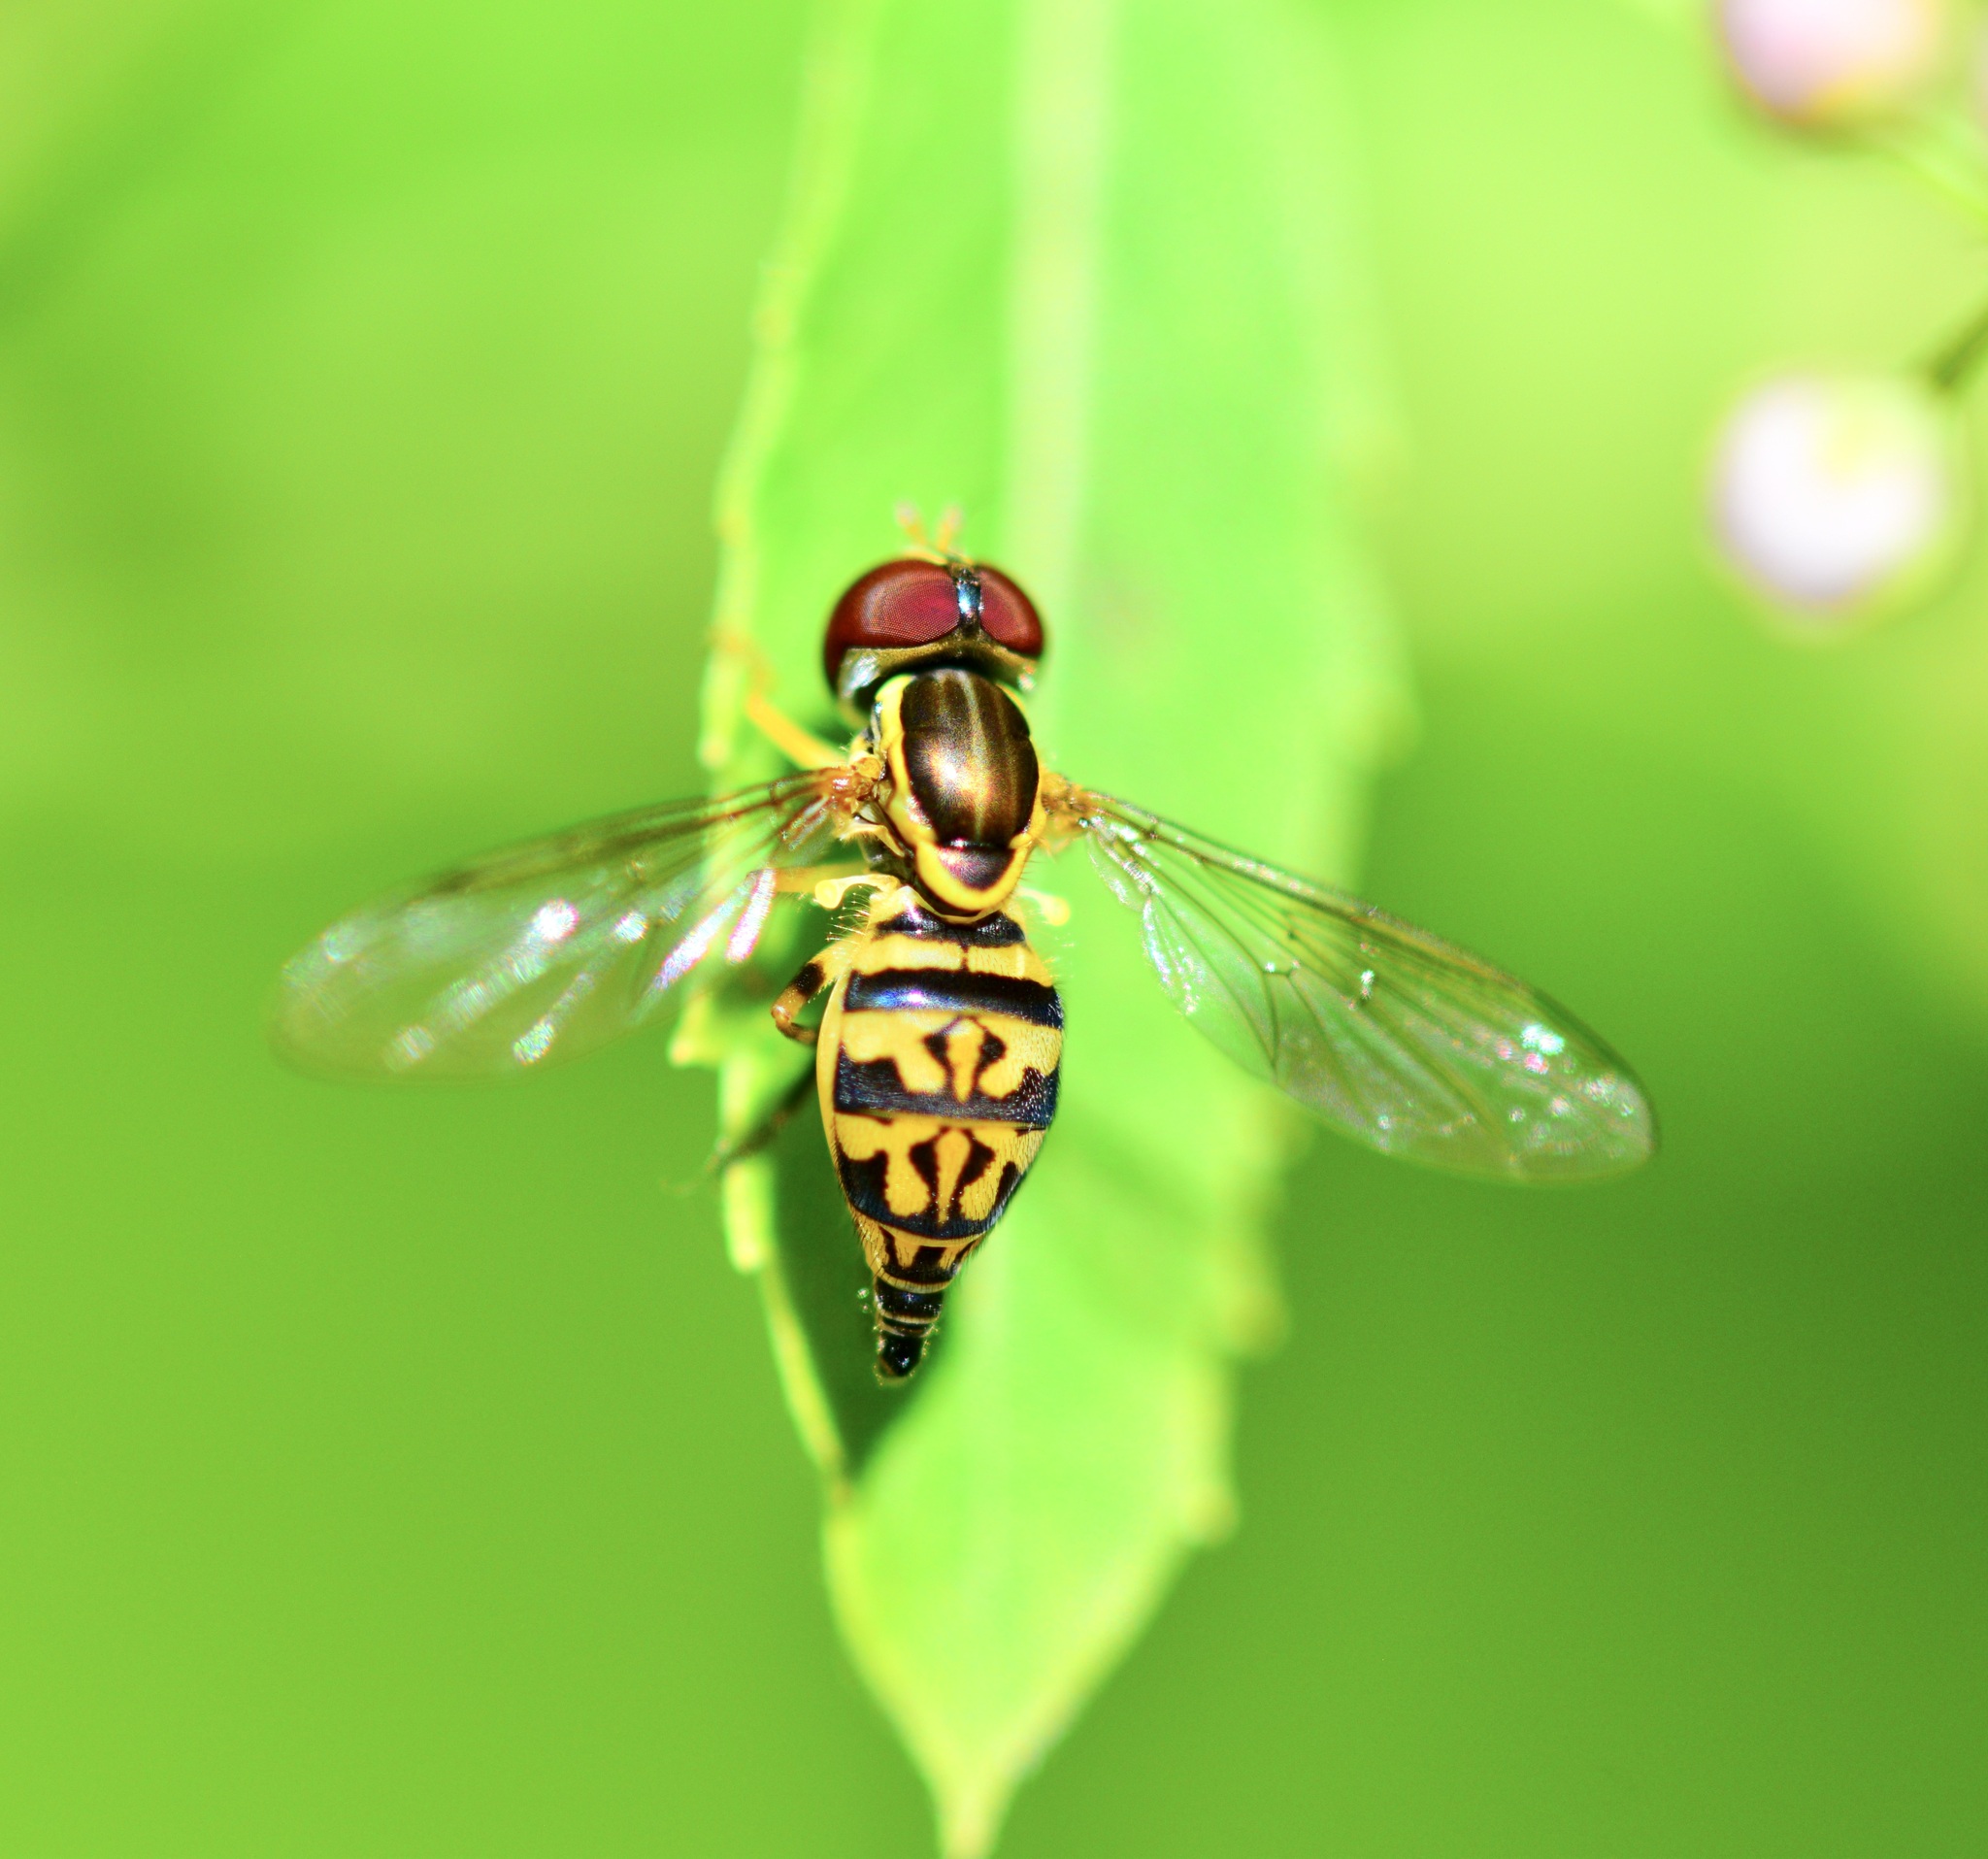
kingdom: Animalia
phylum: Arthropoda
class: Insecta
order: Diptera
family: Syrphidae
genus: Toxomerus
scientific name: Toxomerus geminatus
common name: Eastern calligrapher
